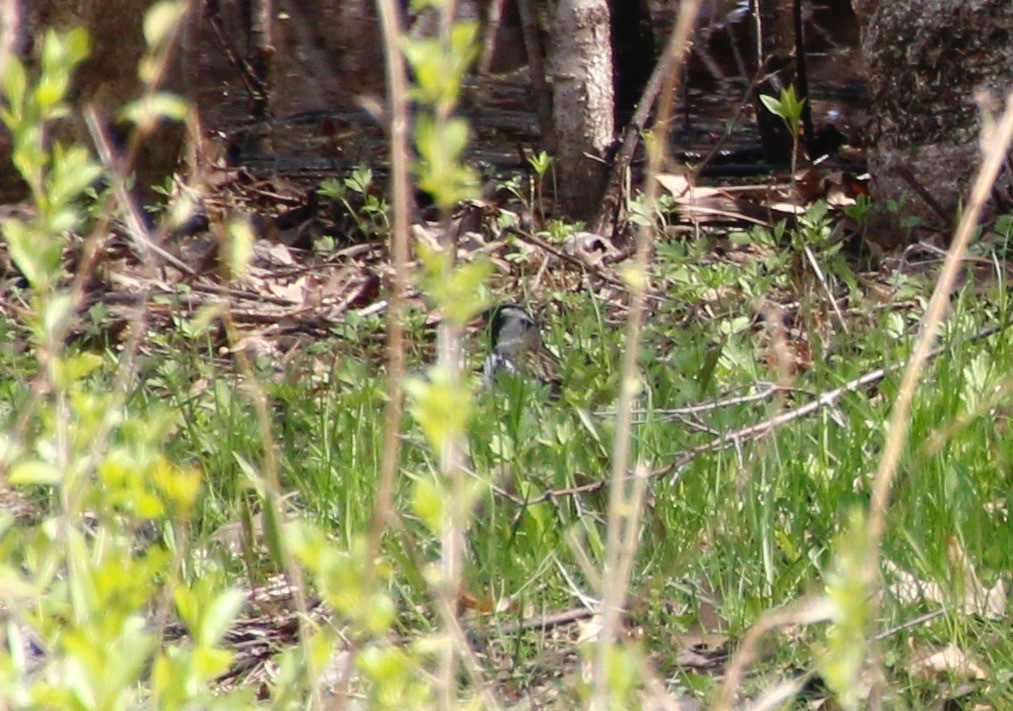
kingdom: Animalia
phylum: Chordata
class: Aves
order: Passeriformes
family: Passerellidae
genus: Zonotrichia
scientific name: Zonotrichia querula
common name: Harris's sparrow
